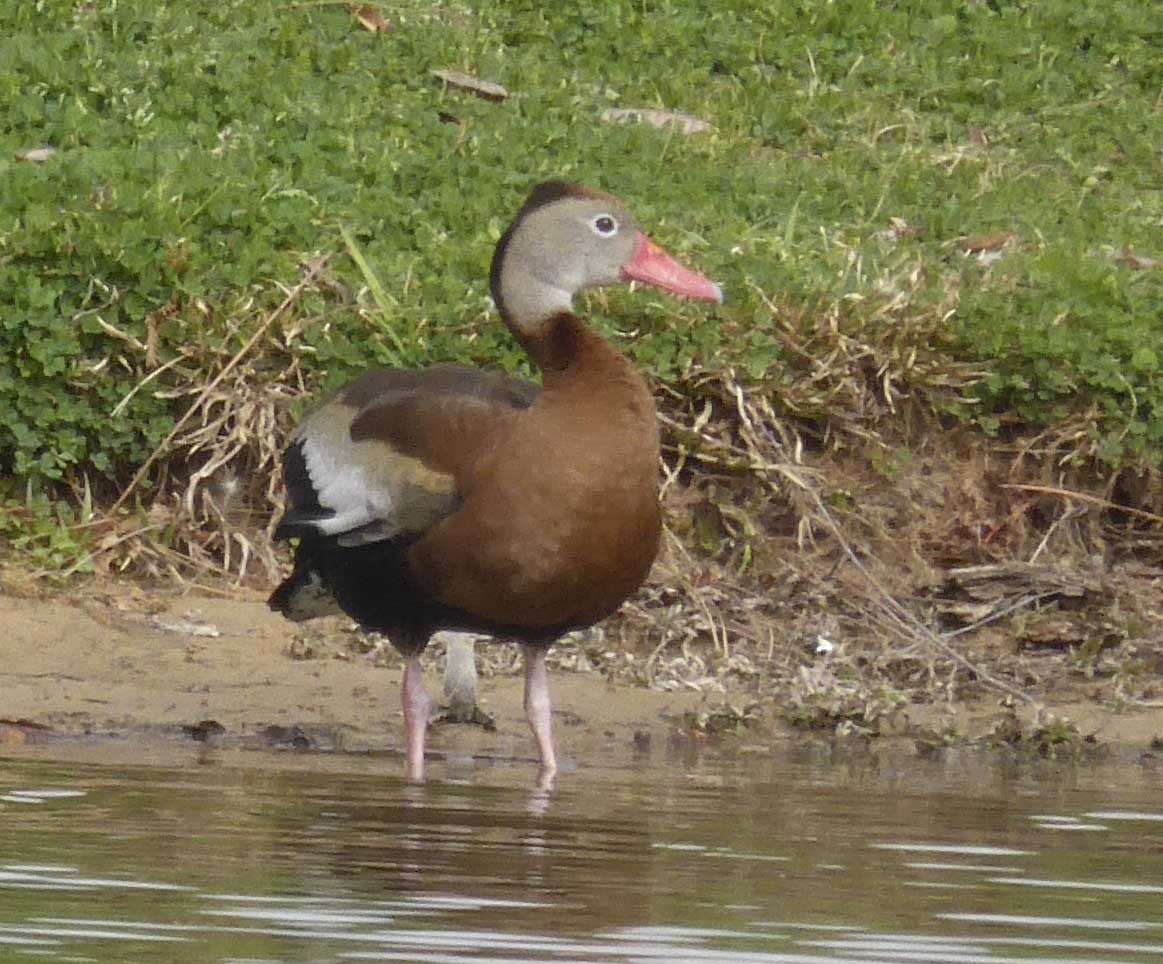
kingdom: Animalia
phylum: Chordata
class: Aves
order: Anseriformes
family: Anatidae
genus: Dendrocygna
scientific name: Dendrocygna autumnalis
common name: Black-bellied whistling duck
